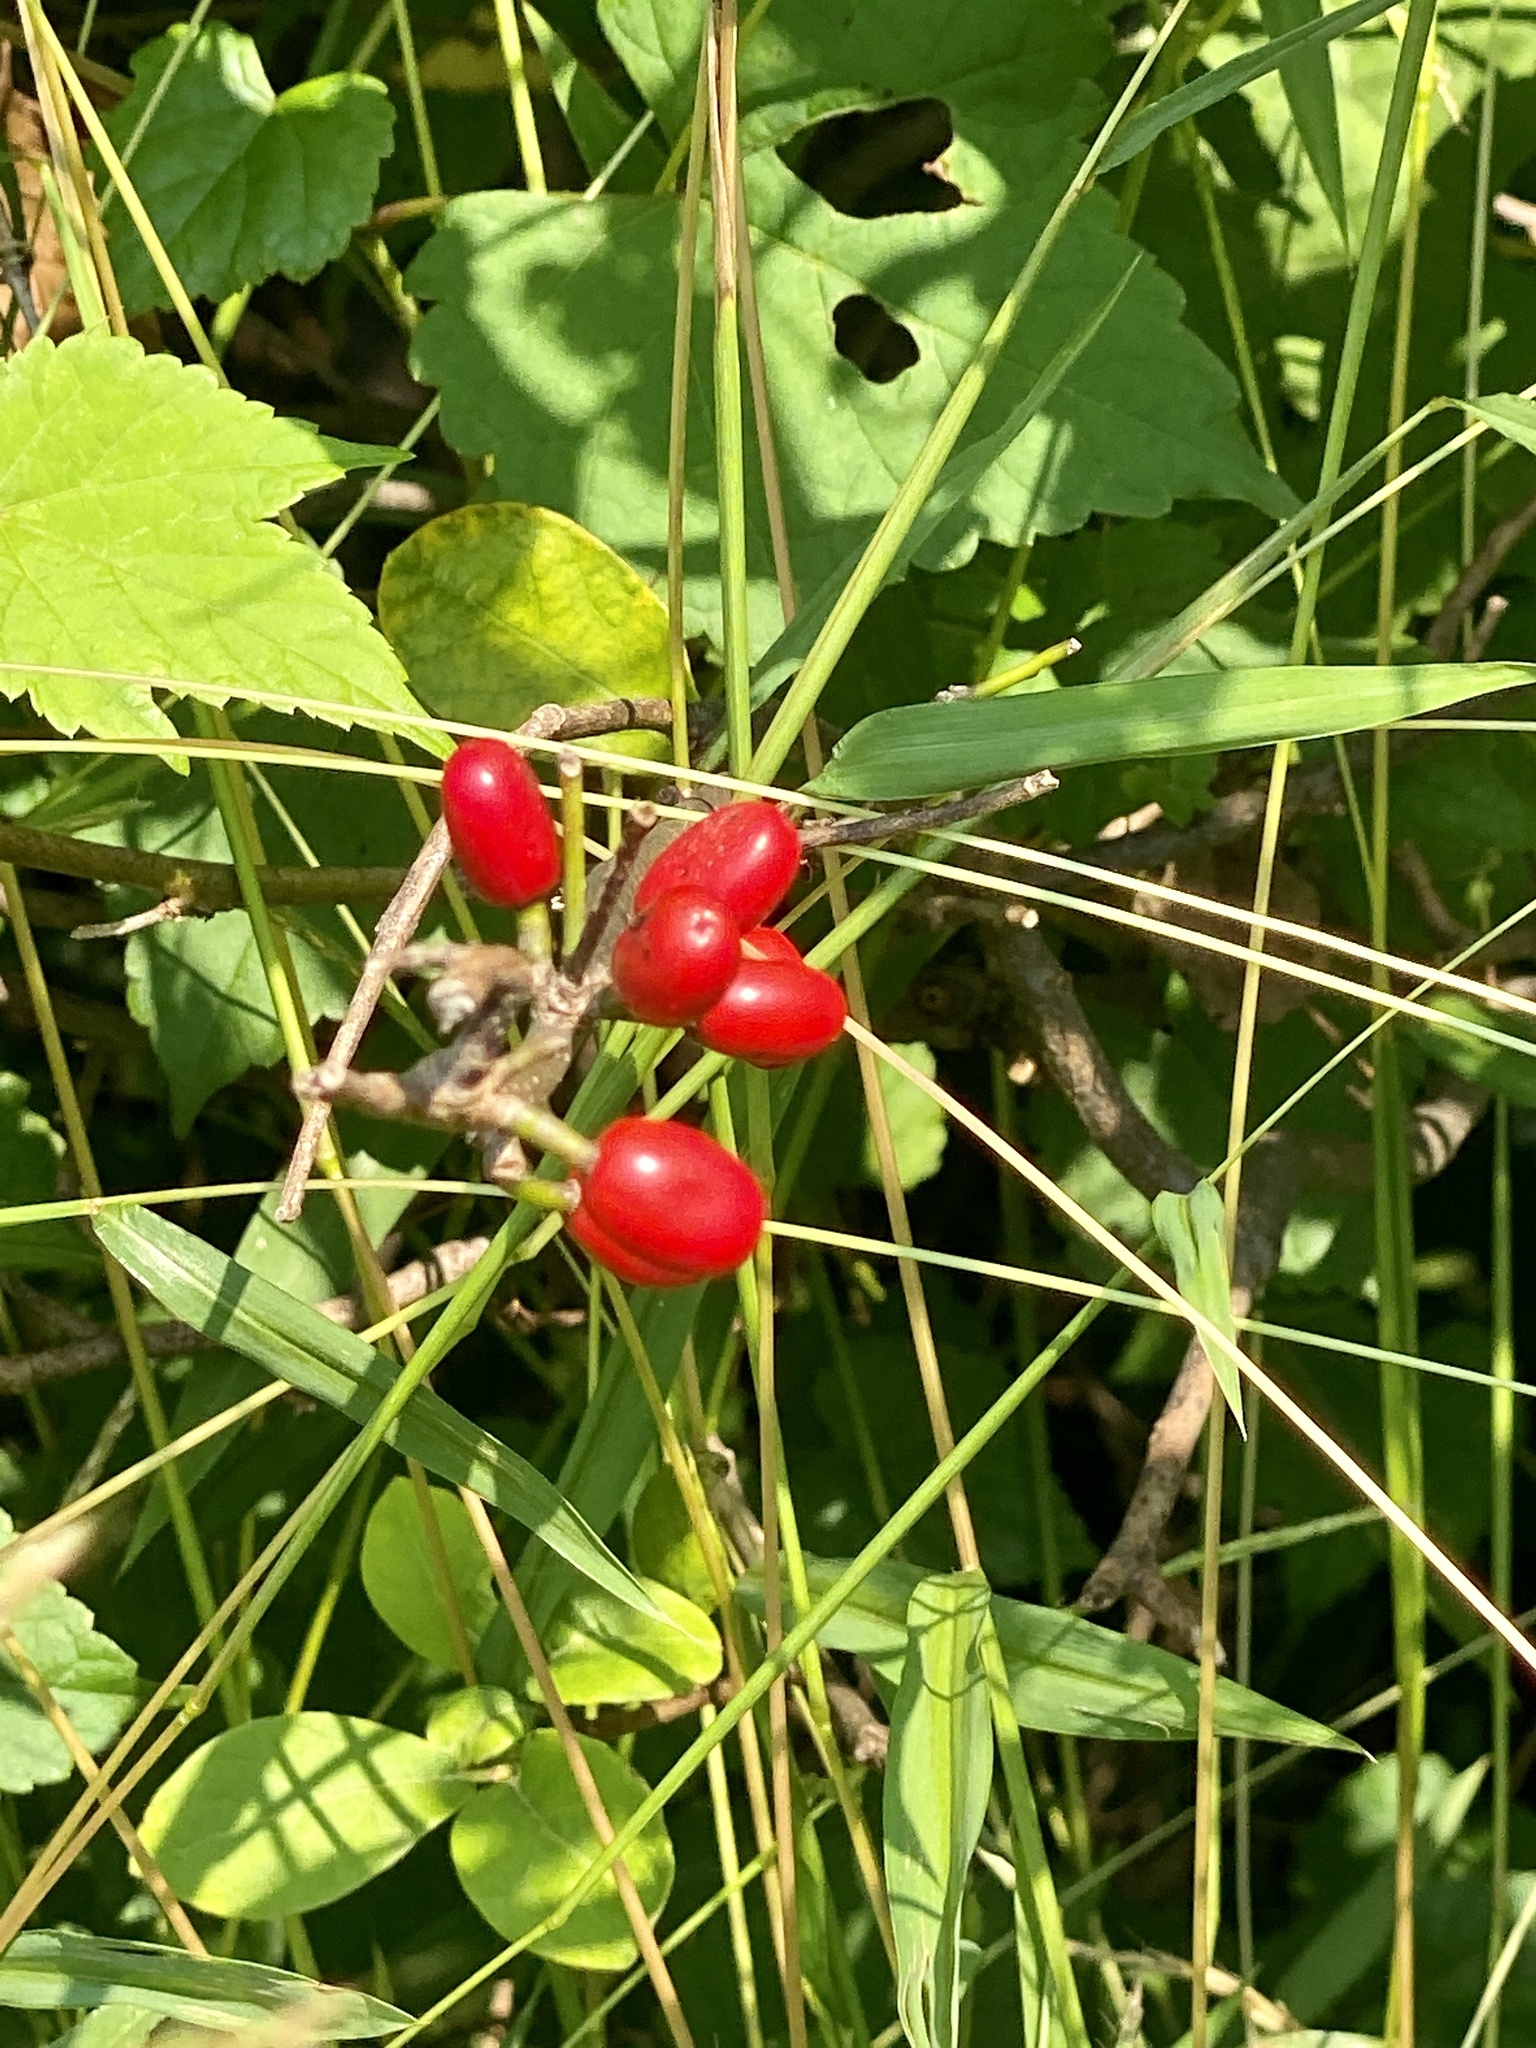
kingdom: Plantae
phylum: Tracheophyta
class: Magnoliopsida
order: Laurales
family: Lauraceae
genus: Lindera
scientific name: Lindera benzoin
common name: Spicebush
